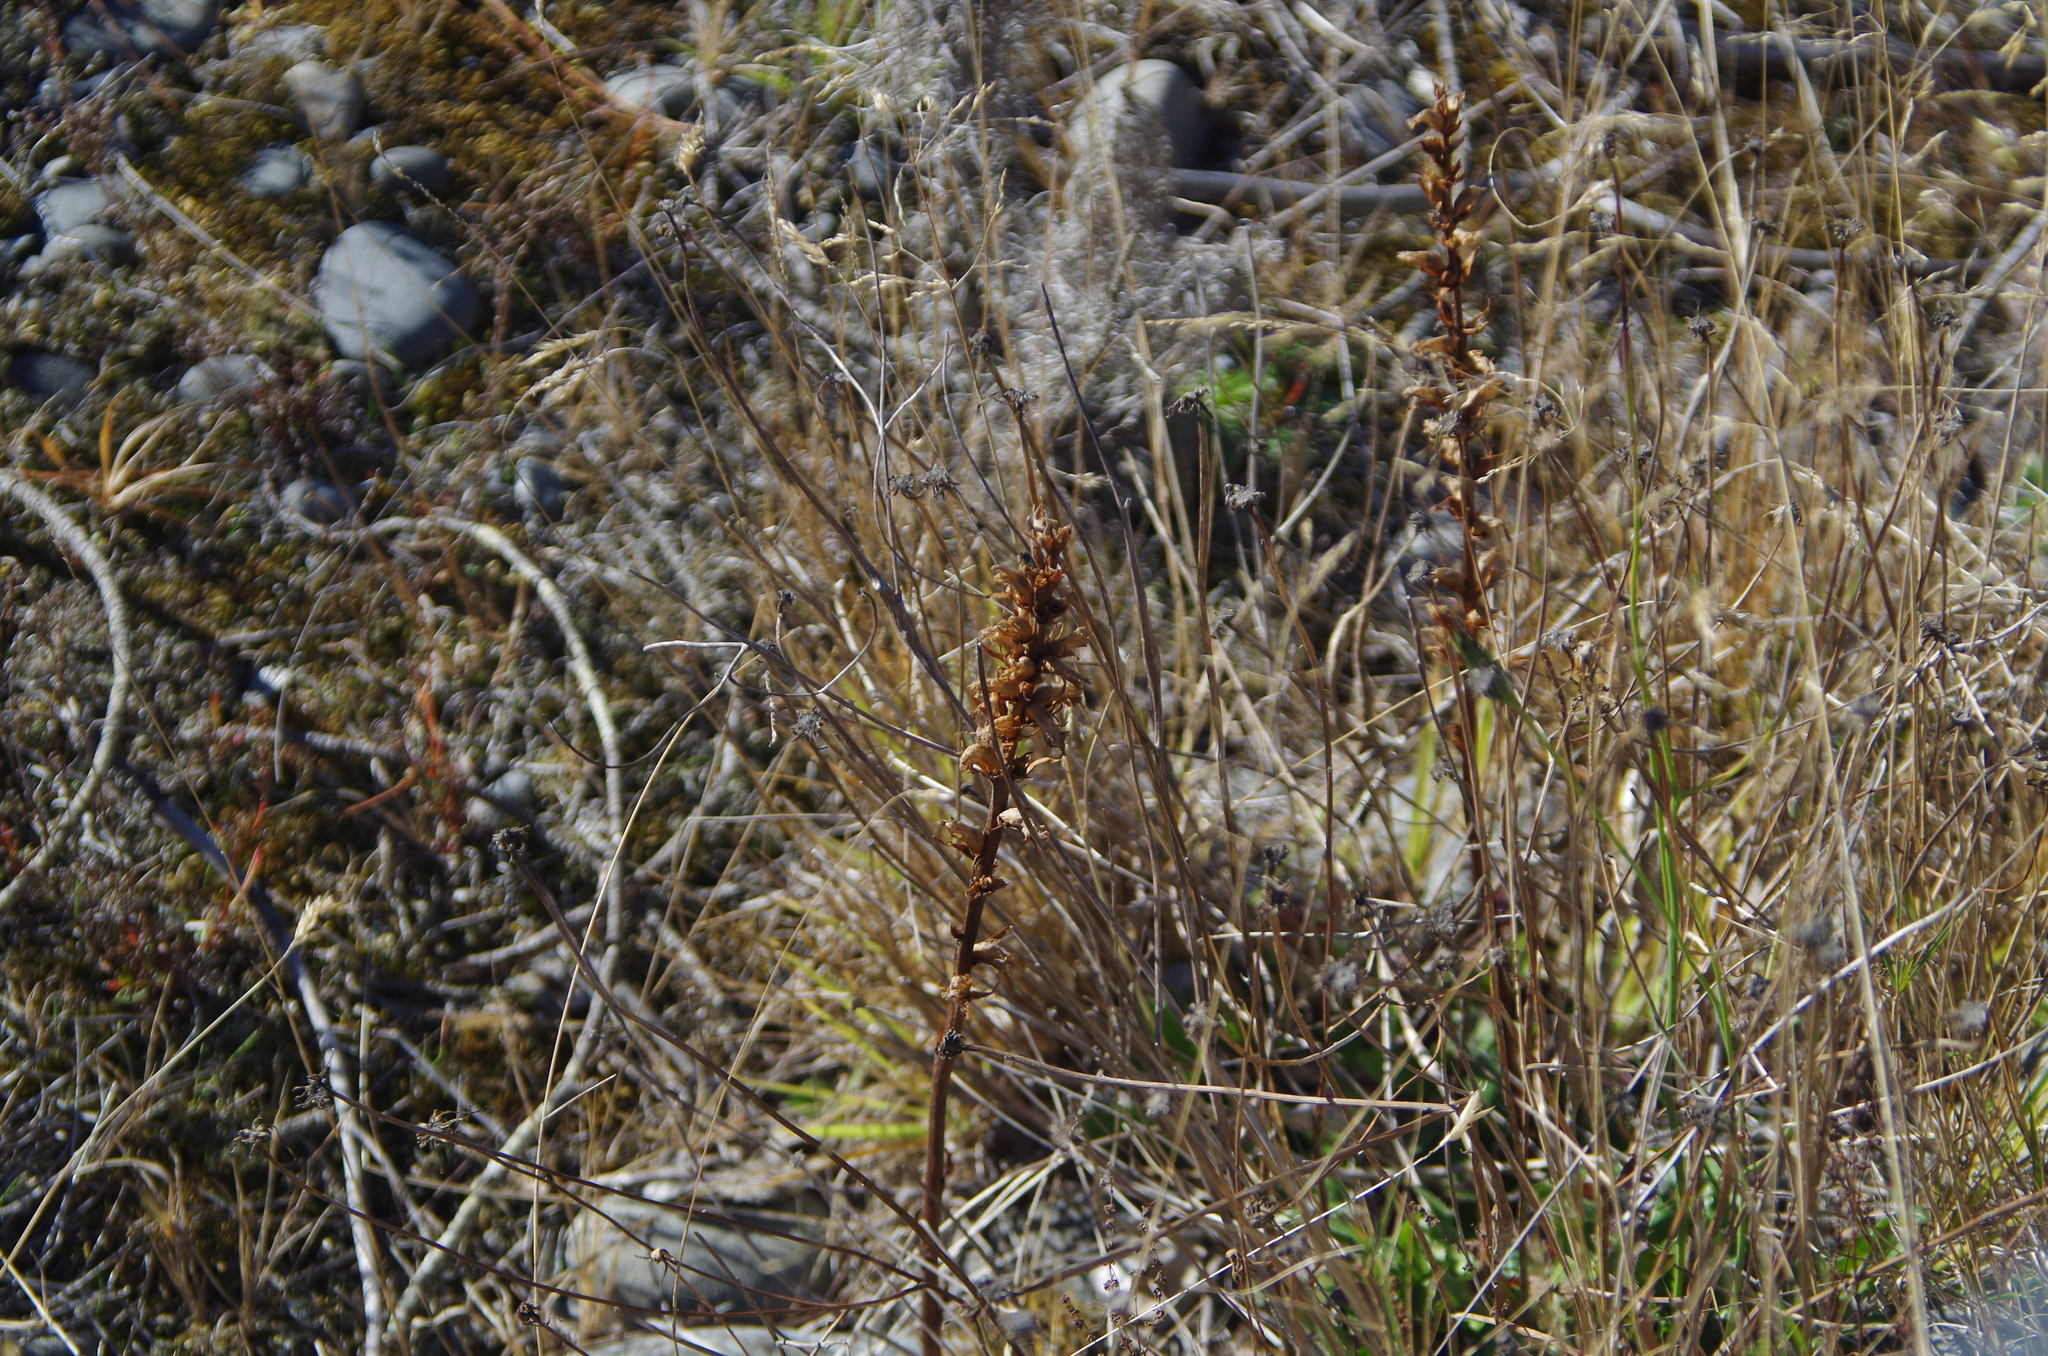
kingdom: Plantae
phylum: Tracheophyta
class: Magnoliopsida
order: Lamiales
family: Orobanchaceae
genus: Orobanche
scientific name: Orobanche minor
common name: Common broomrape
